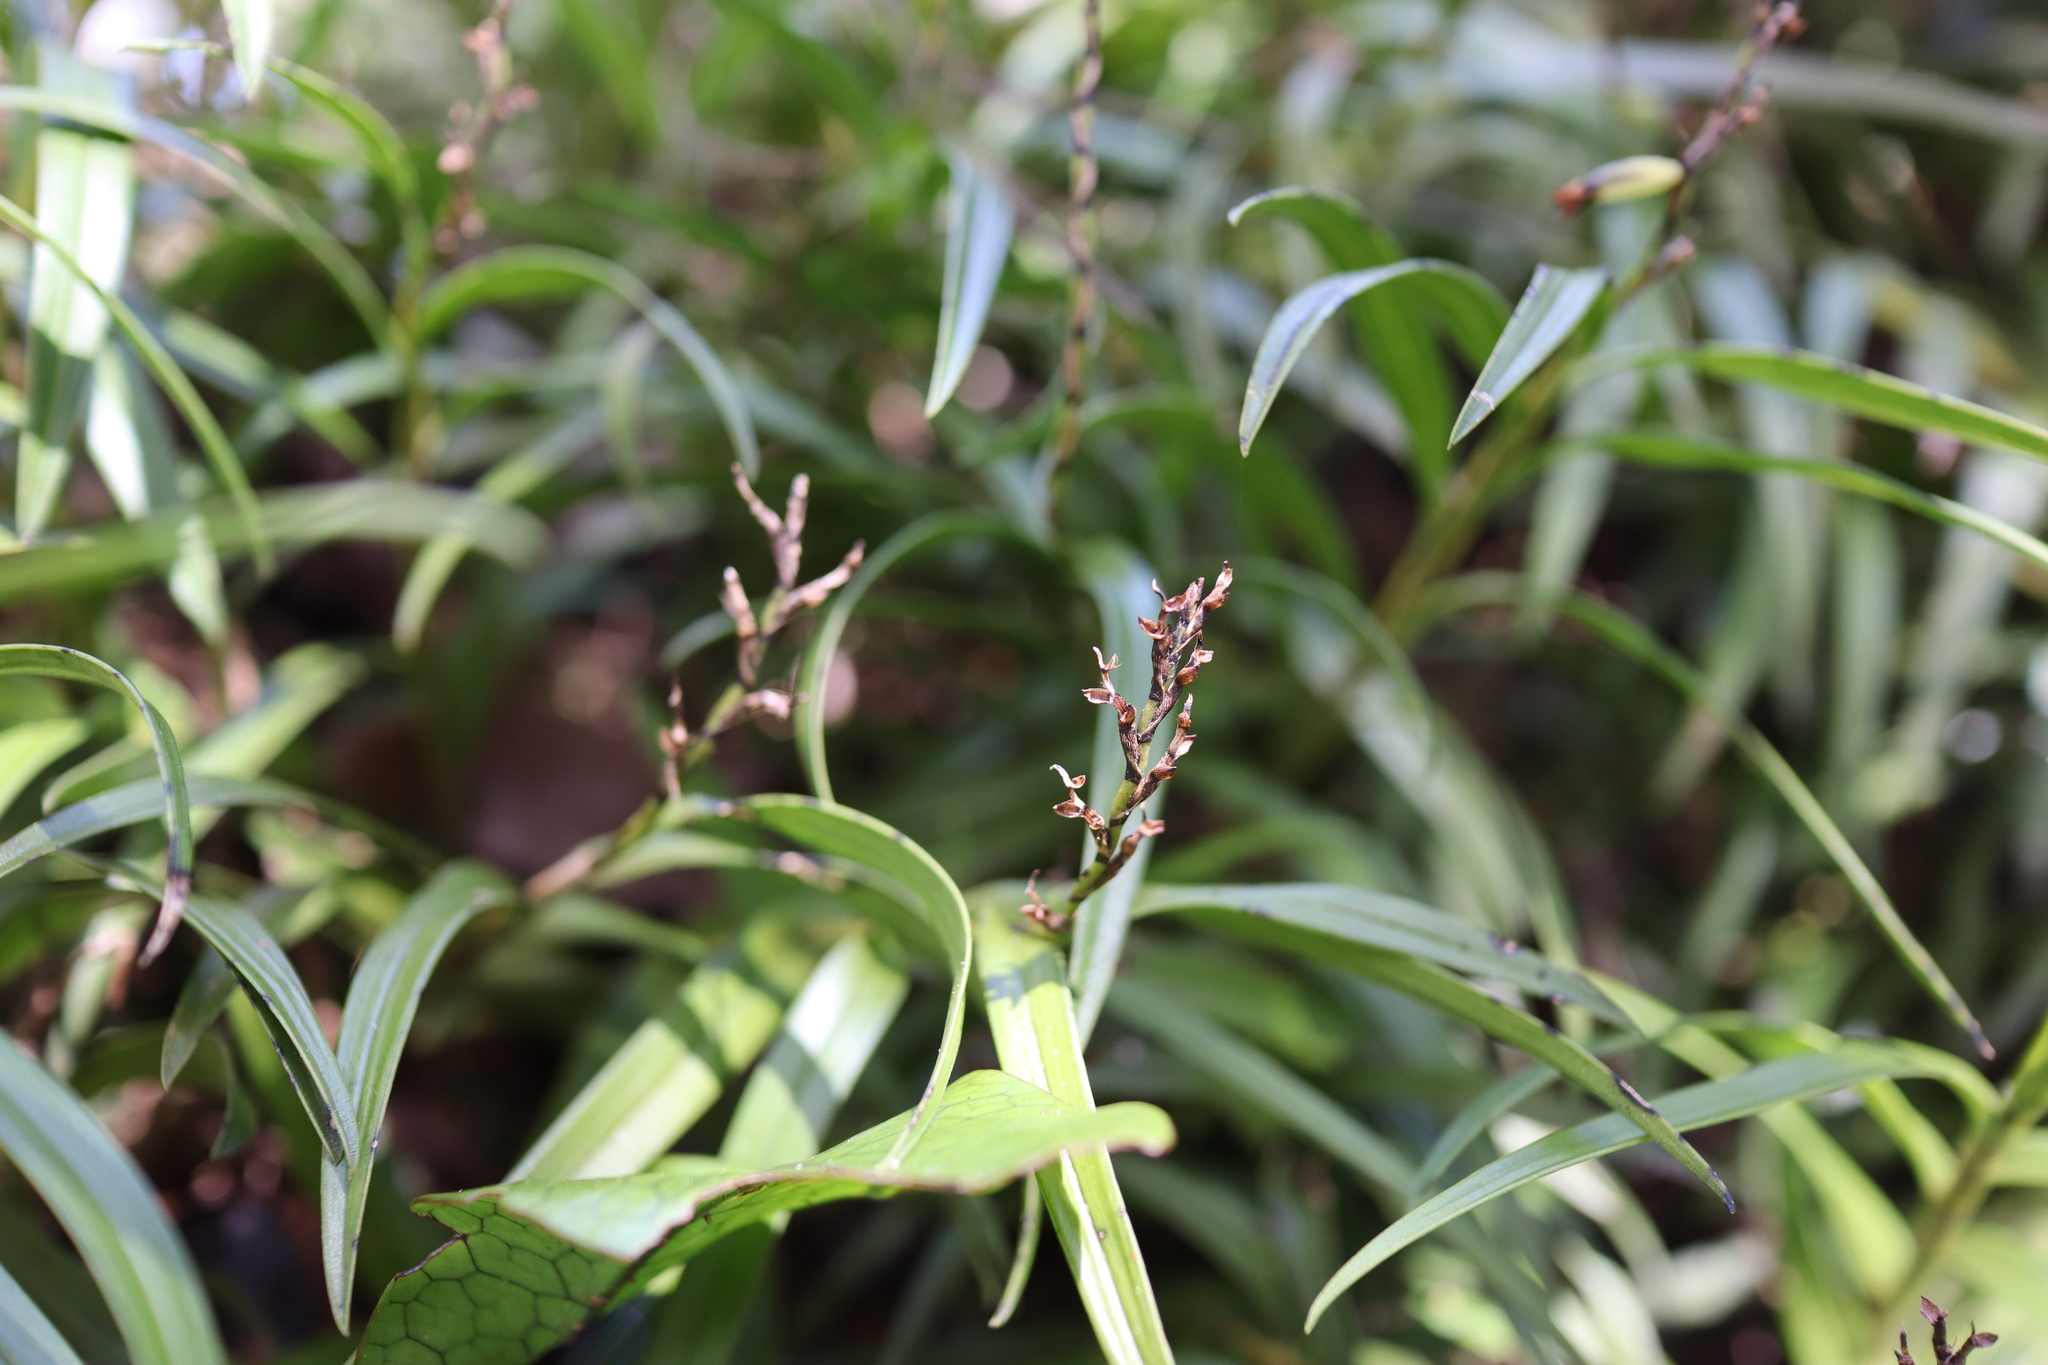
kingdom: Plantae
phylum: Tracheophyta
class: Liliopsida
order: Asparagales
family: Orchidaceae
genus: Earina
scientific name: Earina autumnalis
